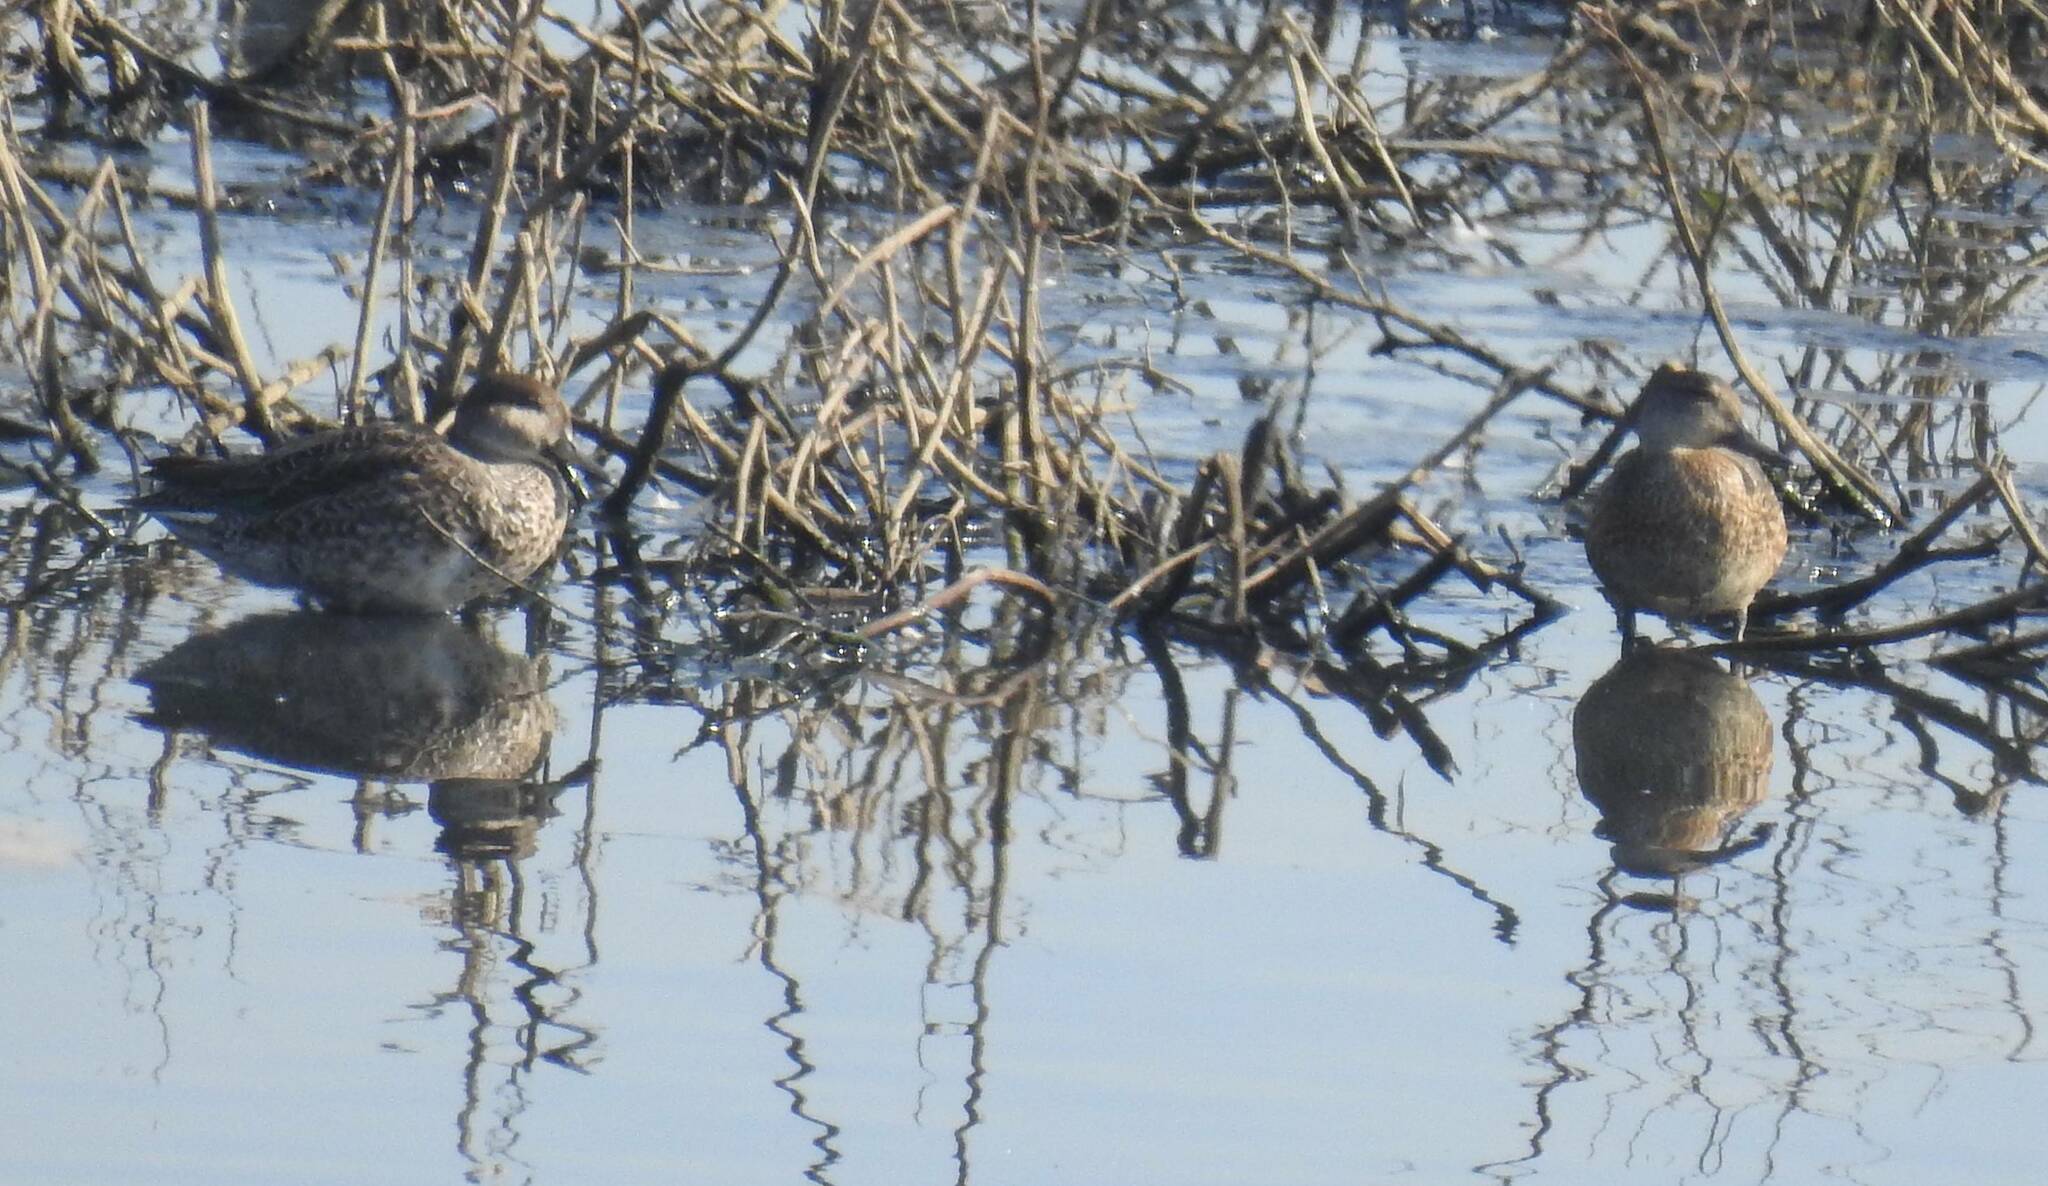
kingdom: Animalia
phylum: Chordata
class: Aves
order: Anseriformes
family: Anatidae
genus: Anas
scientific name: Anas crecca
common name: Eurasian teal
